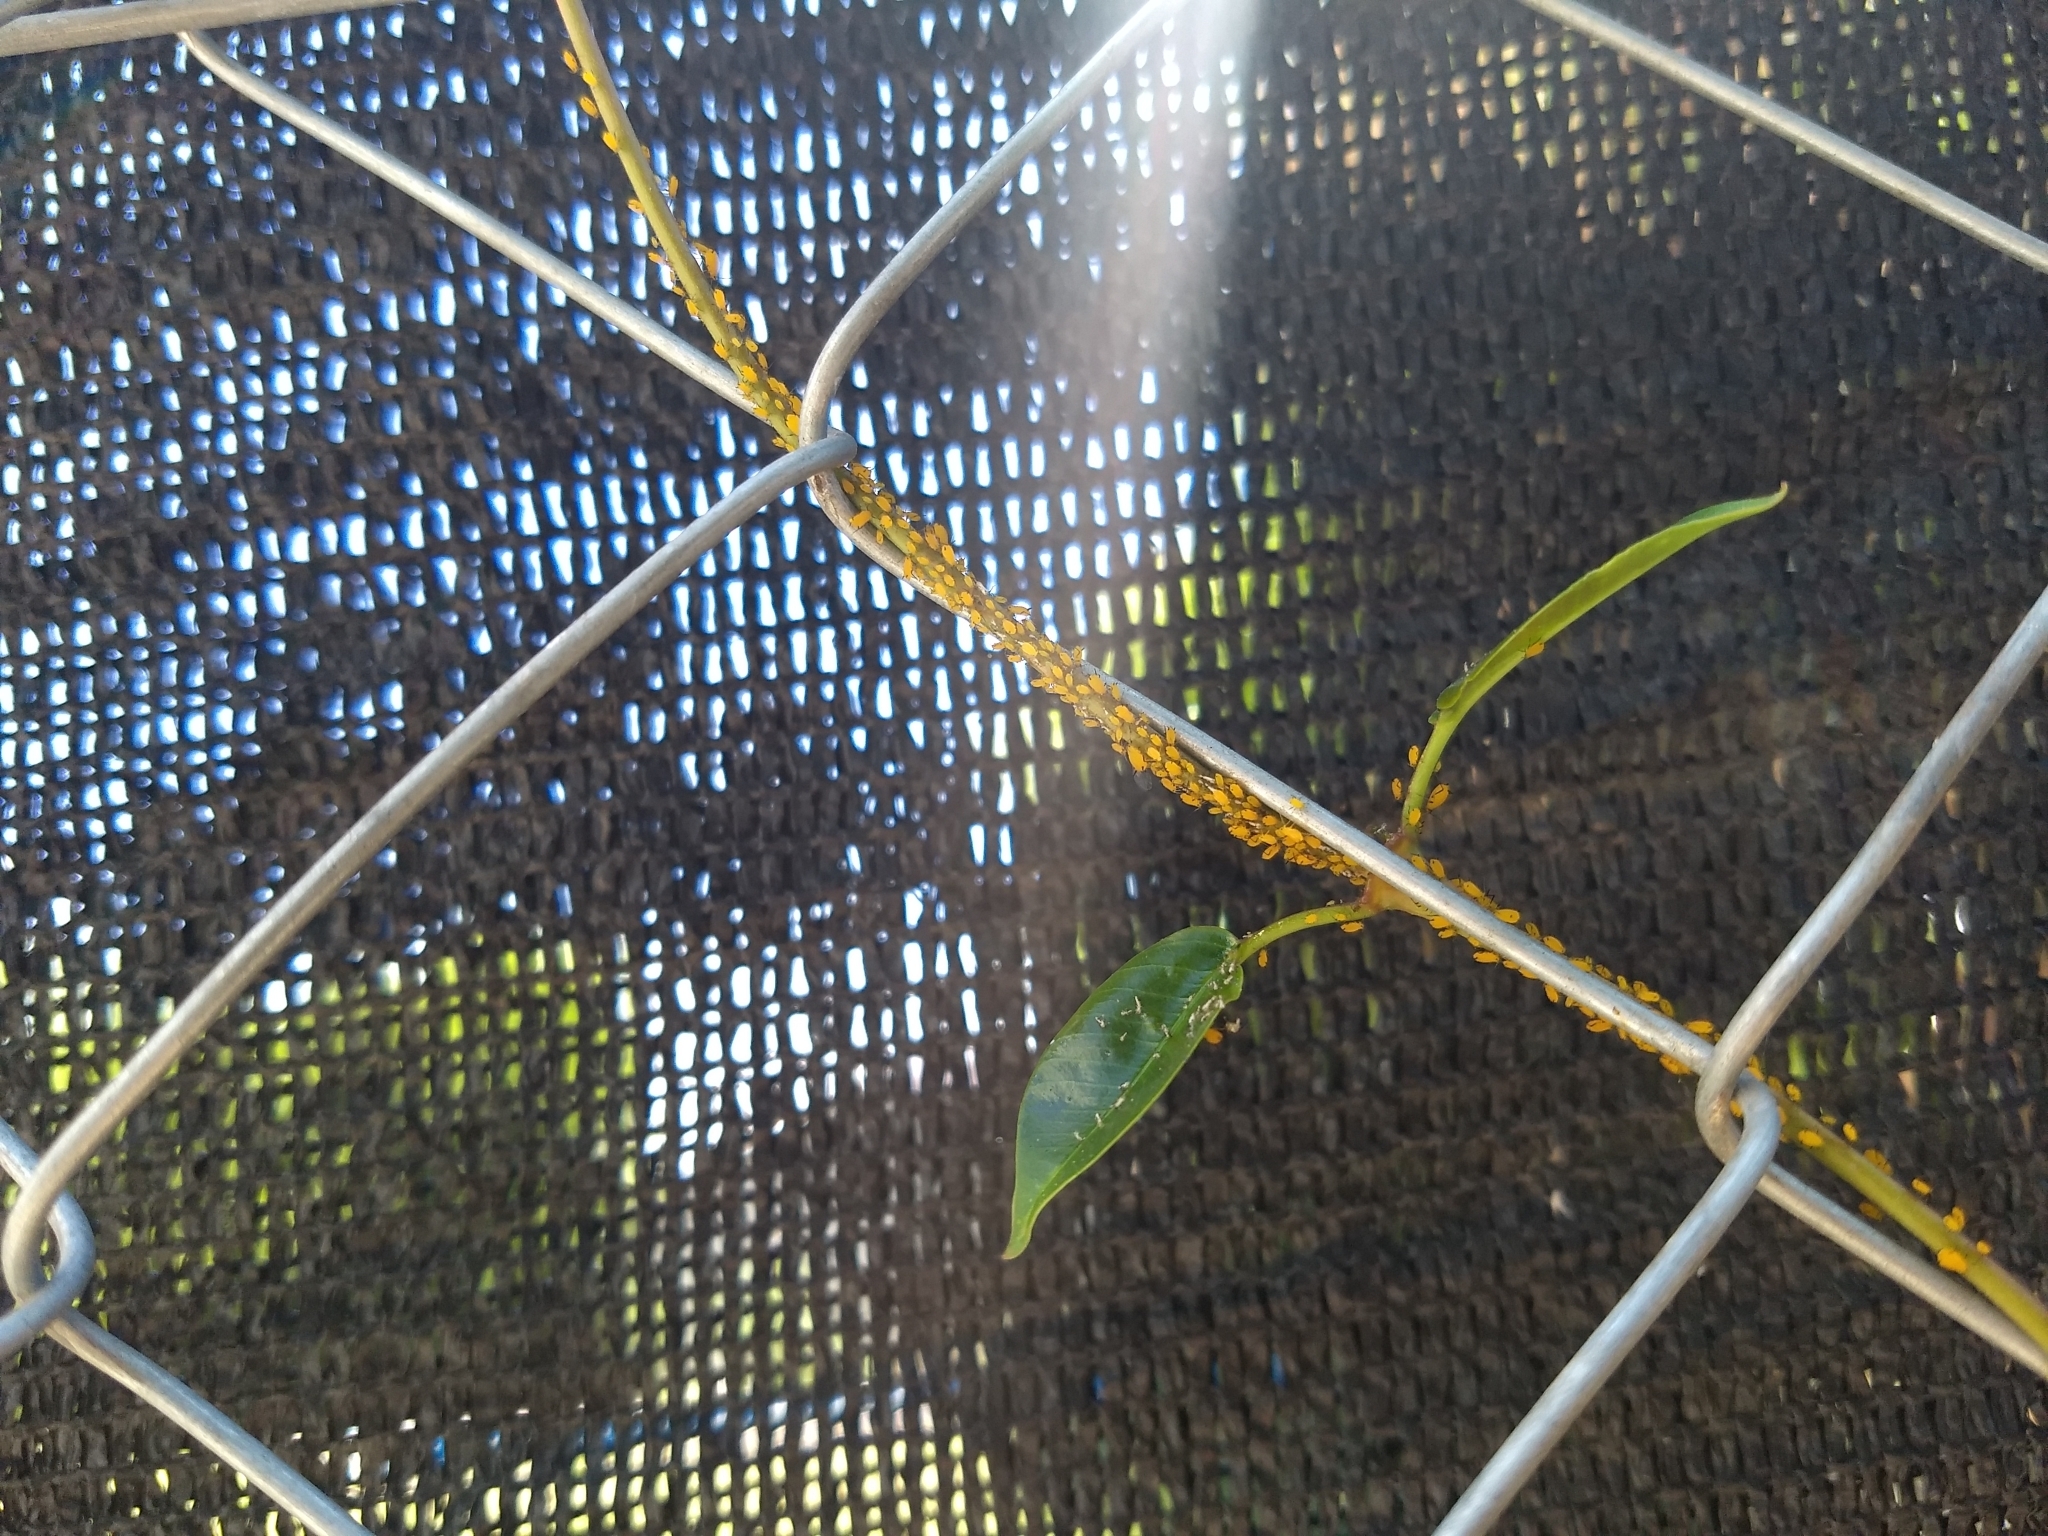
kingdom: Animalia
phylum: Arthropoda
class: Insecta
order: Hemiptera
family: Aphididae
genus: Aphis
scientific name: Aphis nerii
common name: Oleander aphid
